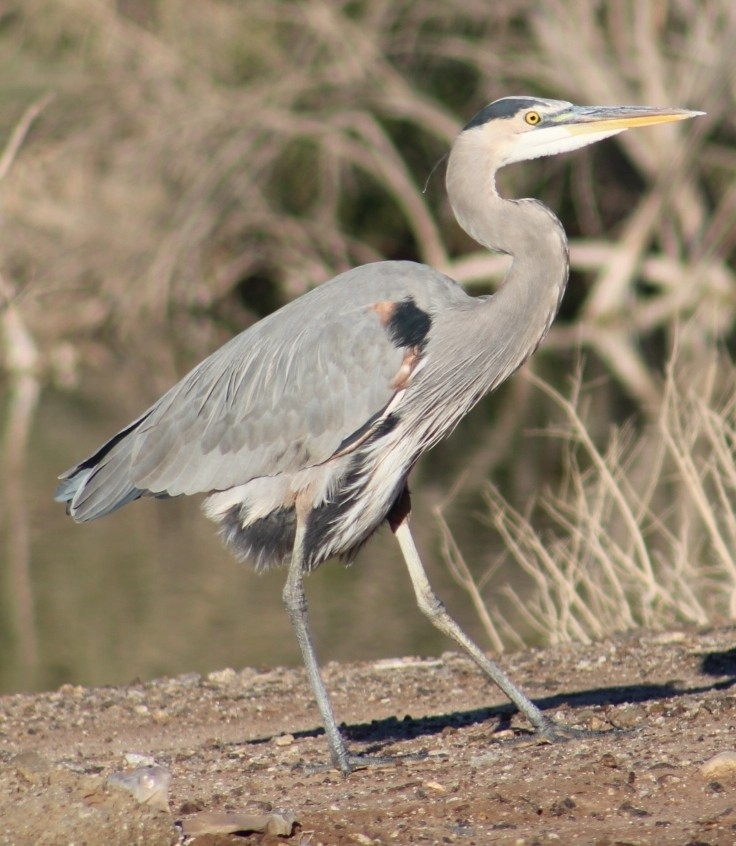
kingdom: Animalia
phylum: Chordata
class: Aves
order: Pelecaniformes
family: Ardeidae
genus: Ardea
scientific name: Ardea herodias
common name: Great blue heron
